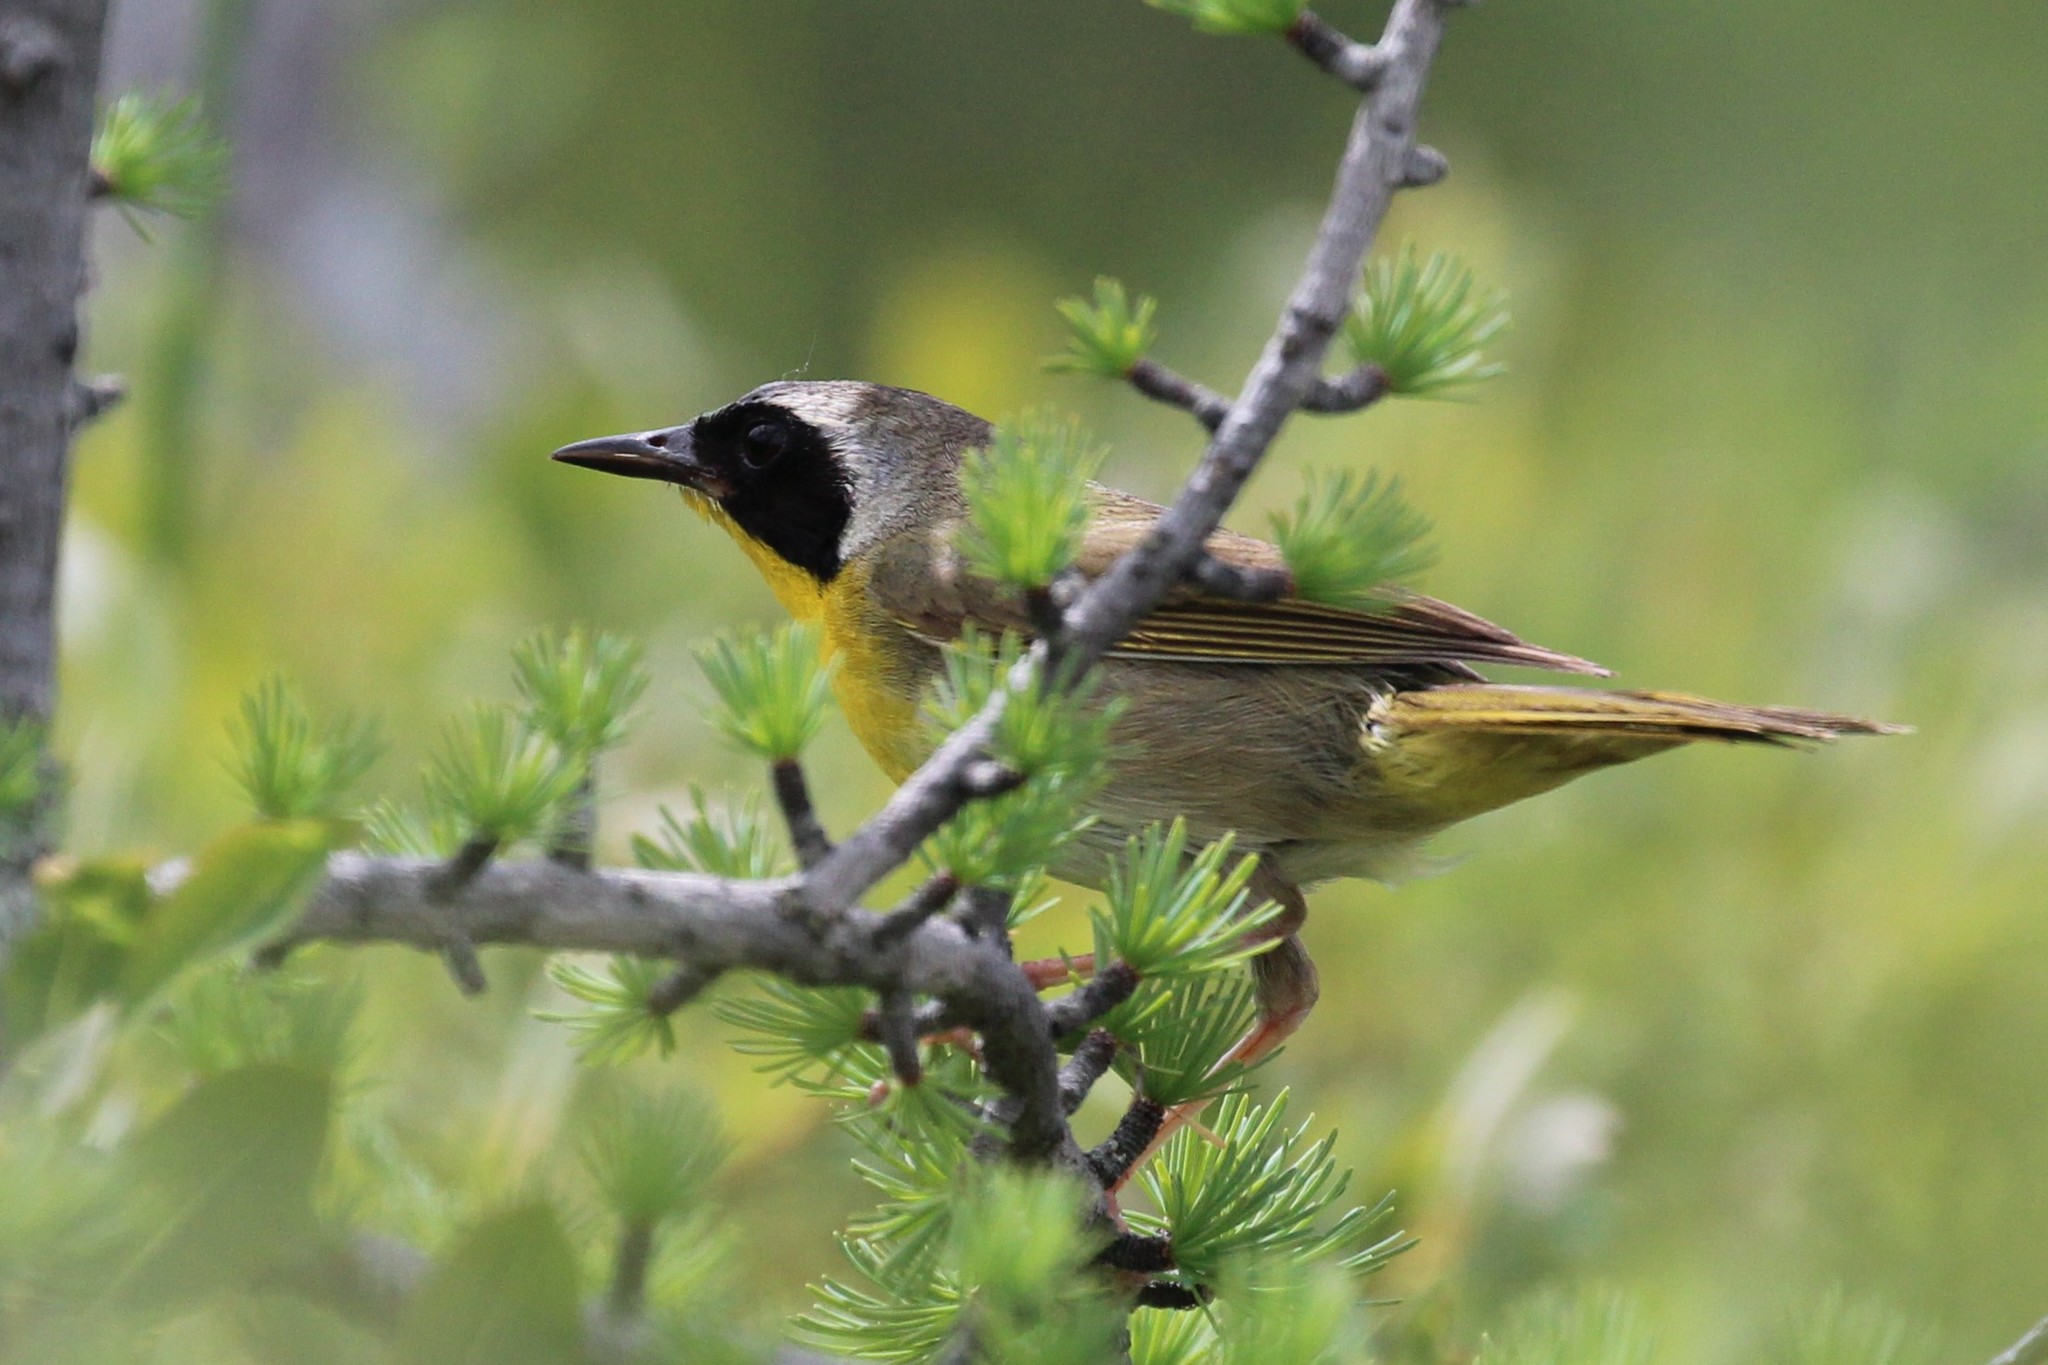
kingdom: Animalia
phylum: Chordata
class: Aves
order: Passeriformes
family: Parulidae
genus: Geothlypis
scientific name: Geothlypis trichas
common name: Common yellowthroat
